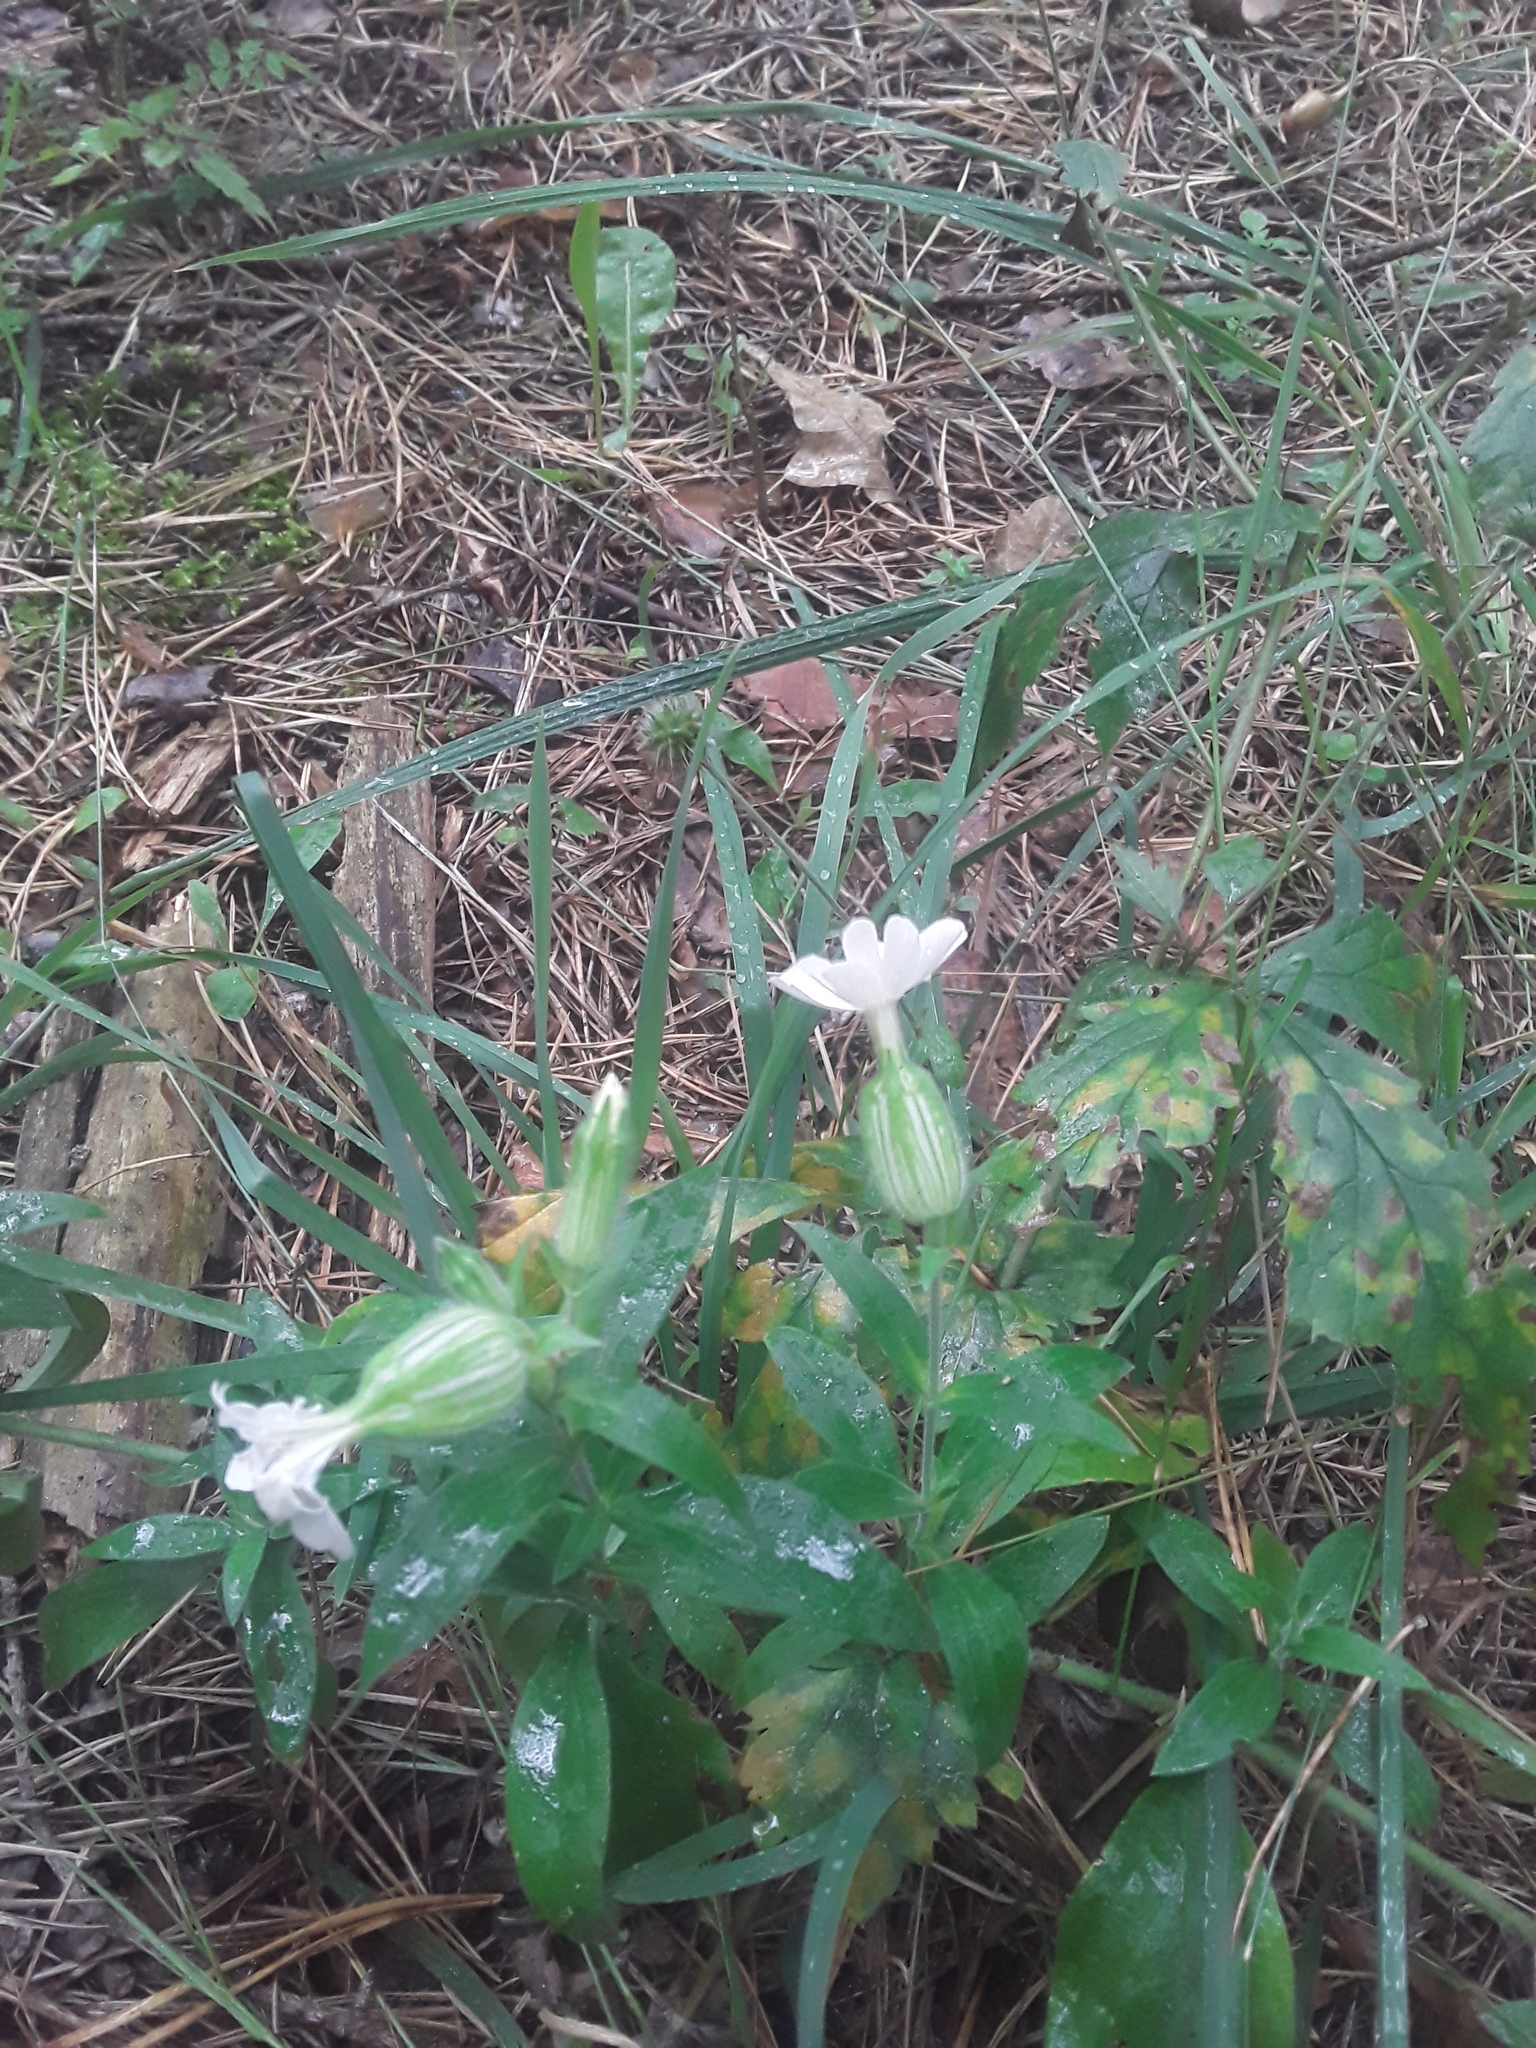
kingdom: Plantae
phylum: Tracheophyta
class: Magnoliopsida
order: Caryophyllales
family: Caryophyllaceae
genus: Silene
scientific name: Silene latifolia
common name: White campion
